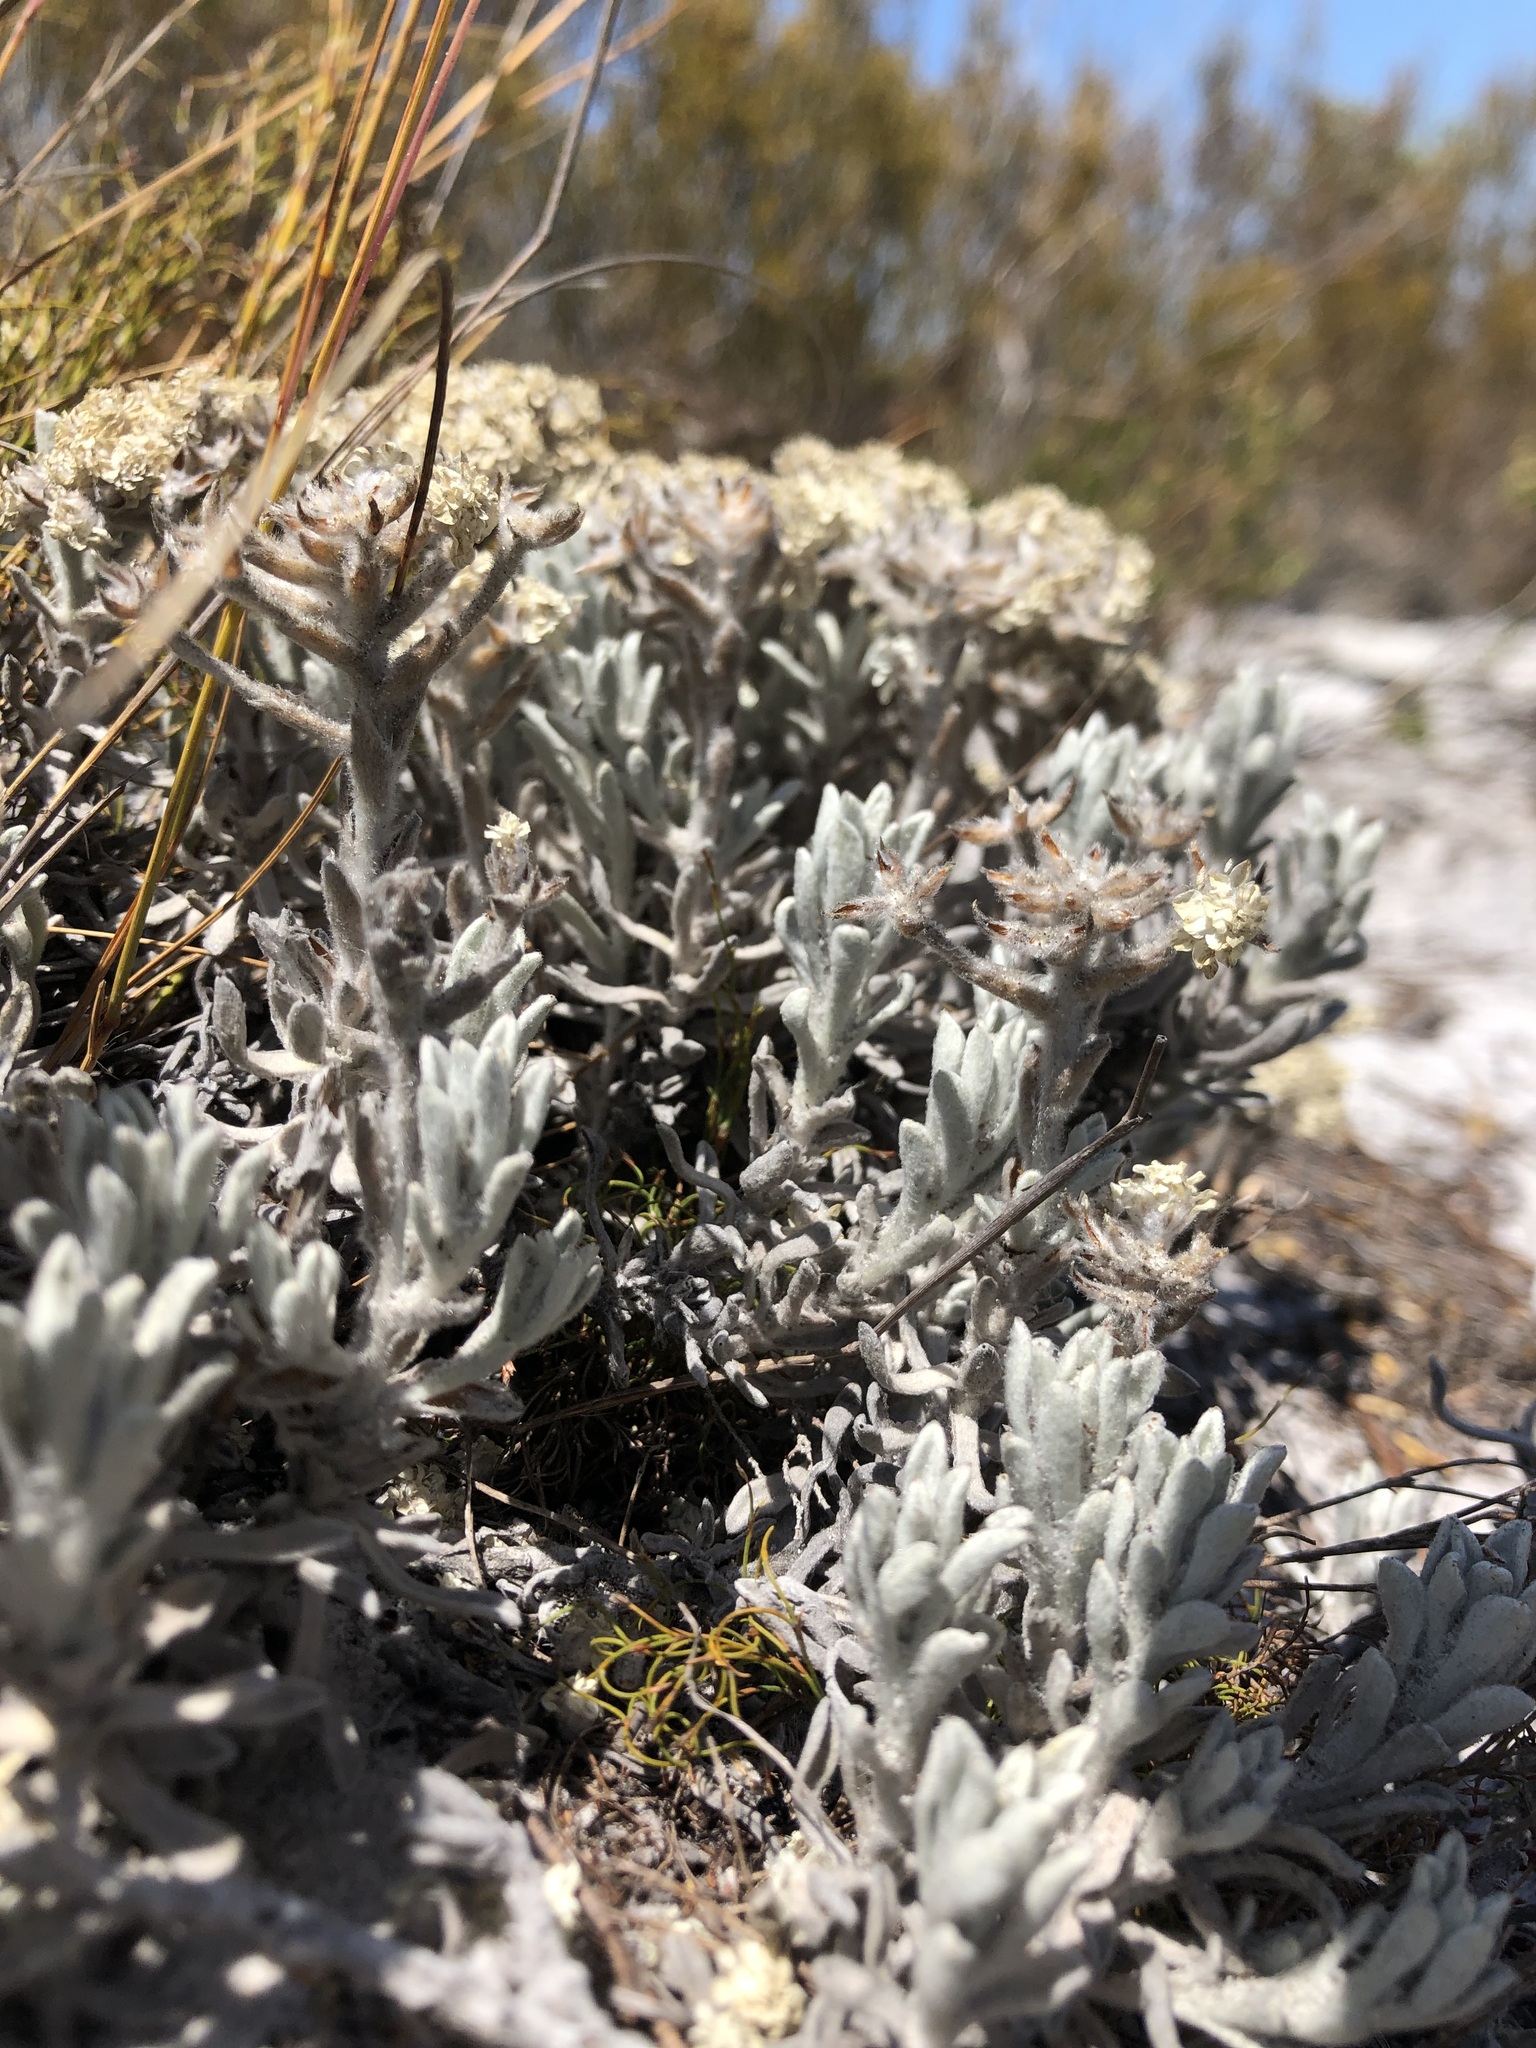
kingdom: Plantae
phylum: Tracheophyta
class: Magnoliopsida
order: Asterales
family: Asteraceae
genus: Petalacte
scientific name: Petalacte coronata
